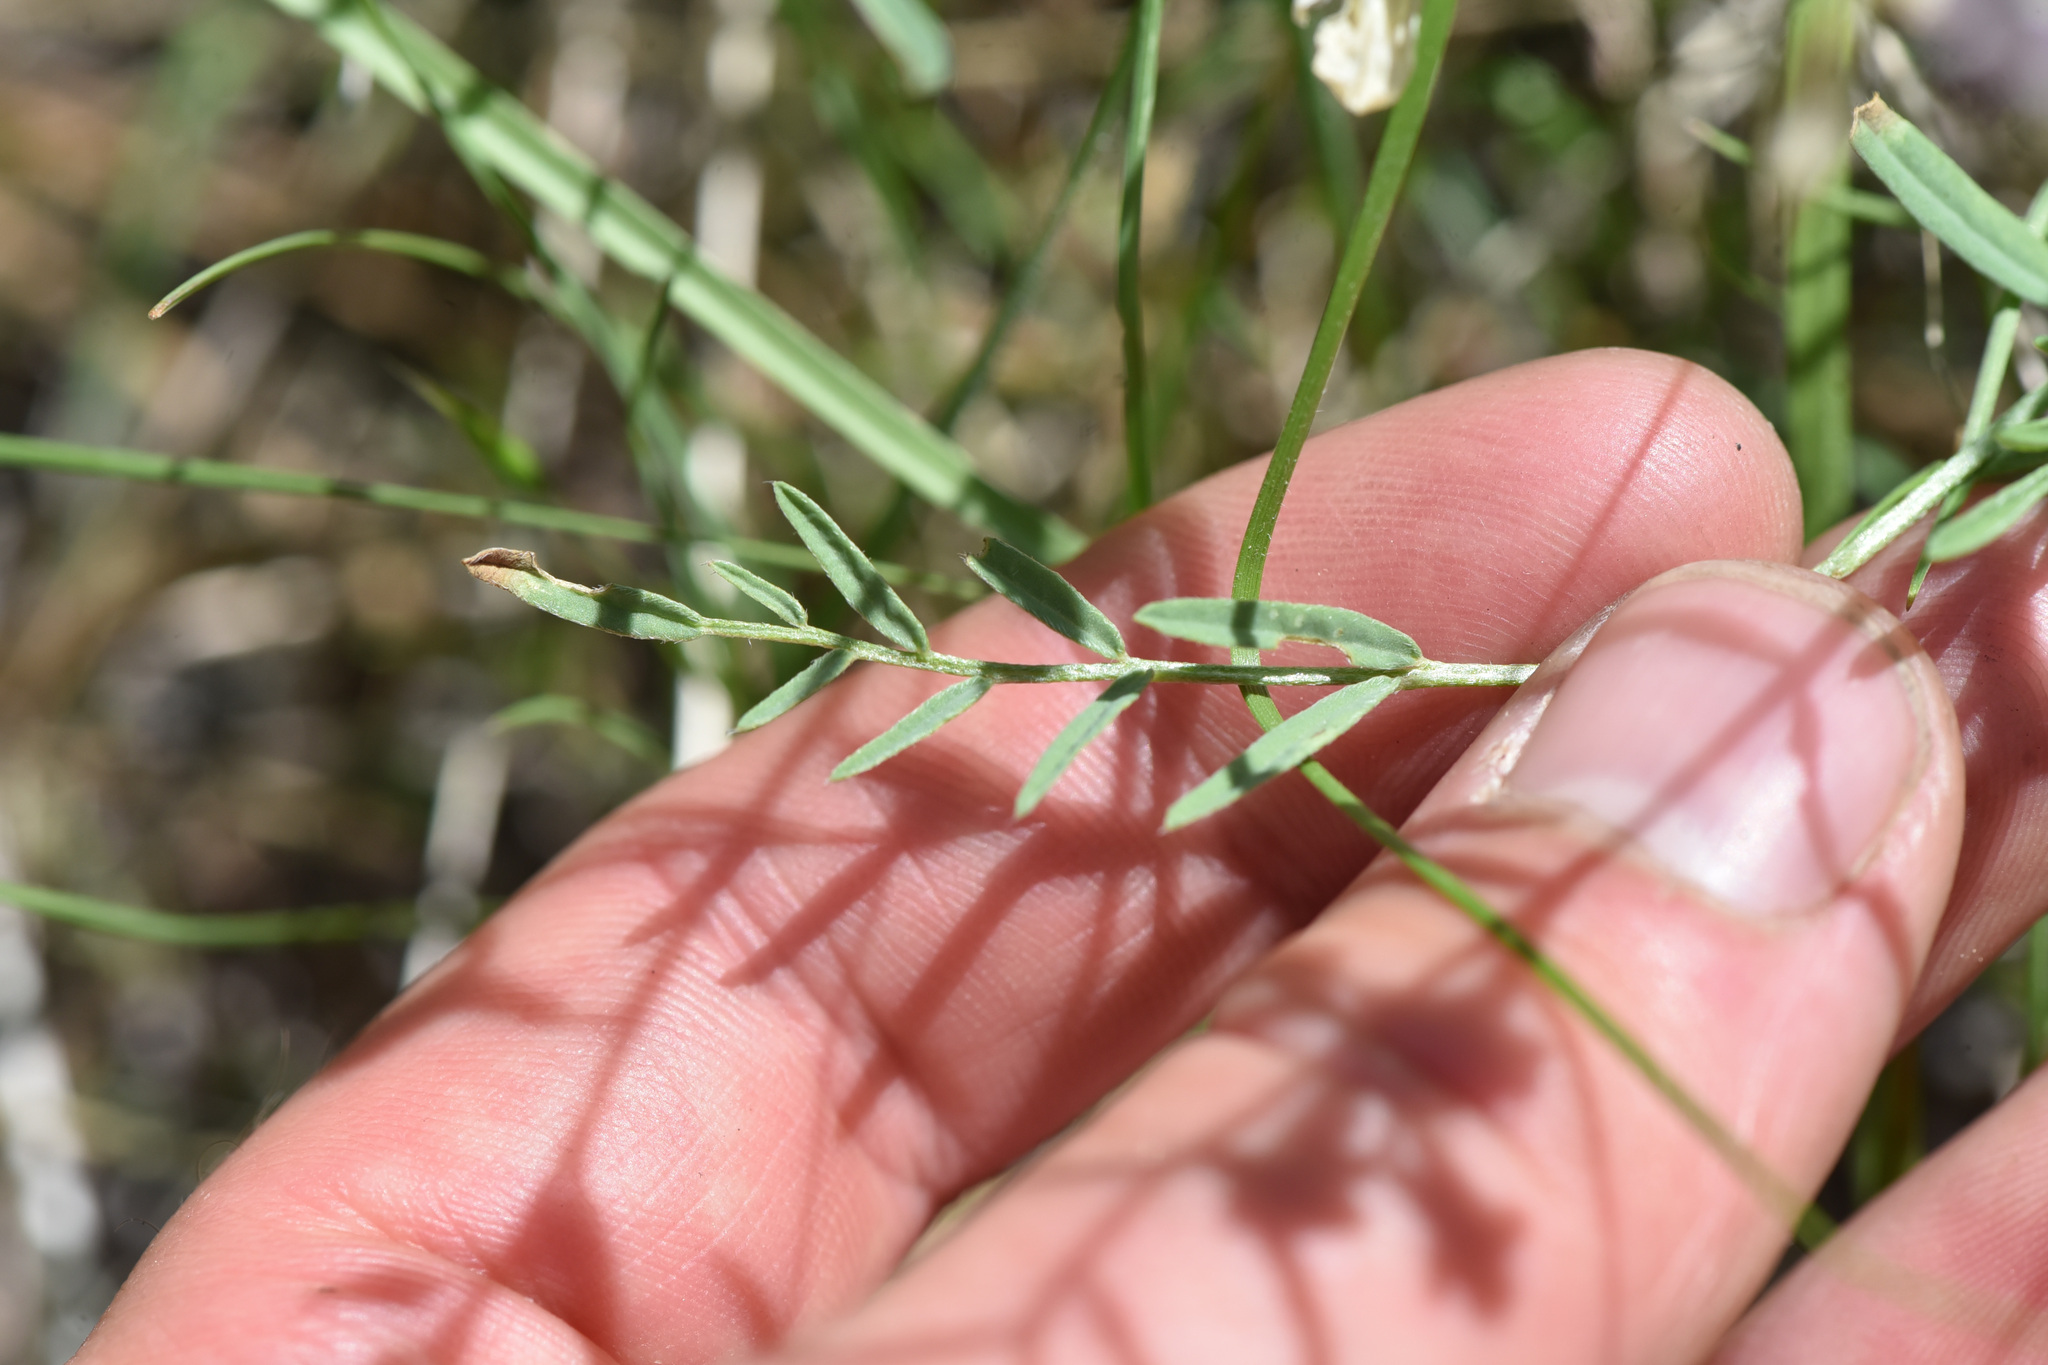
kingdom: Plantae
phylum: Tracheophyta
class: Magnoliopsida
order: Fabales
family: Fabaceae
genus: Astragalus
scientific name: Astragalus miser
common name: Timber milkvetch
